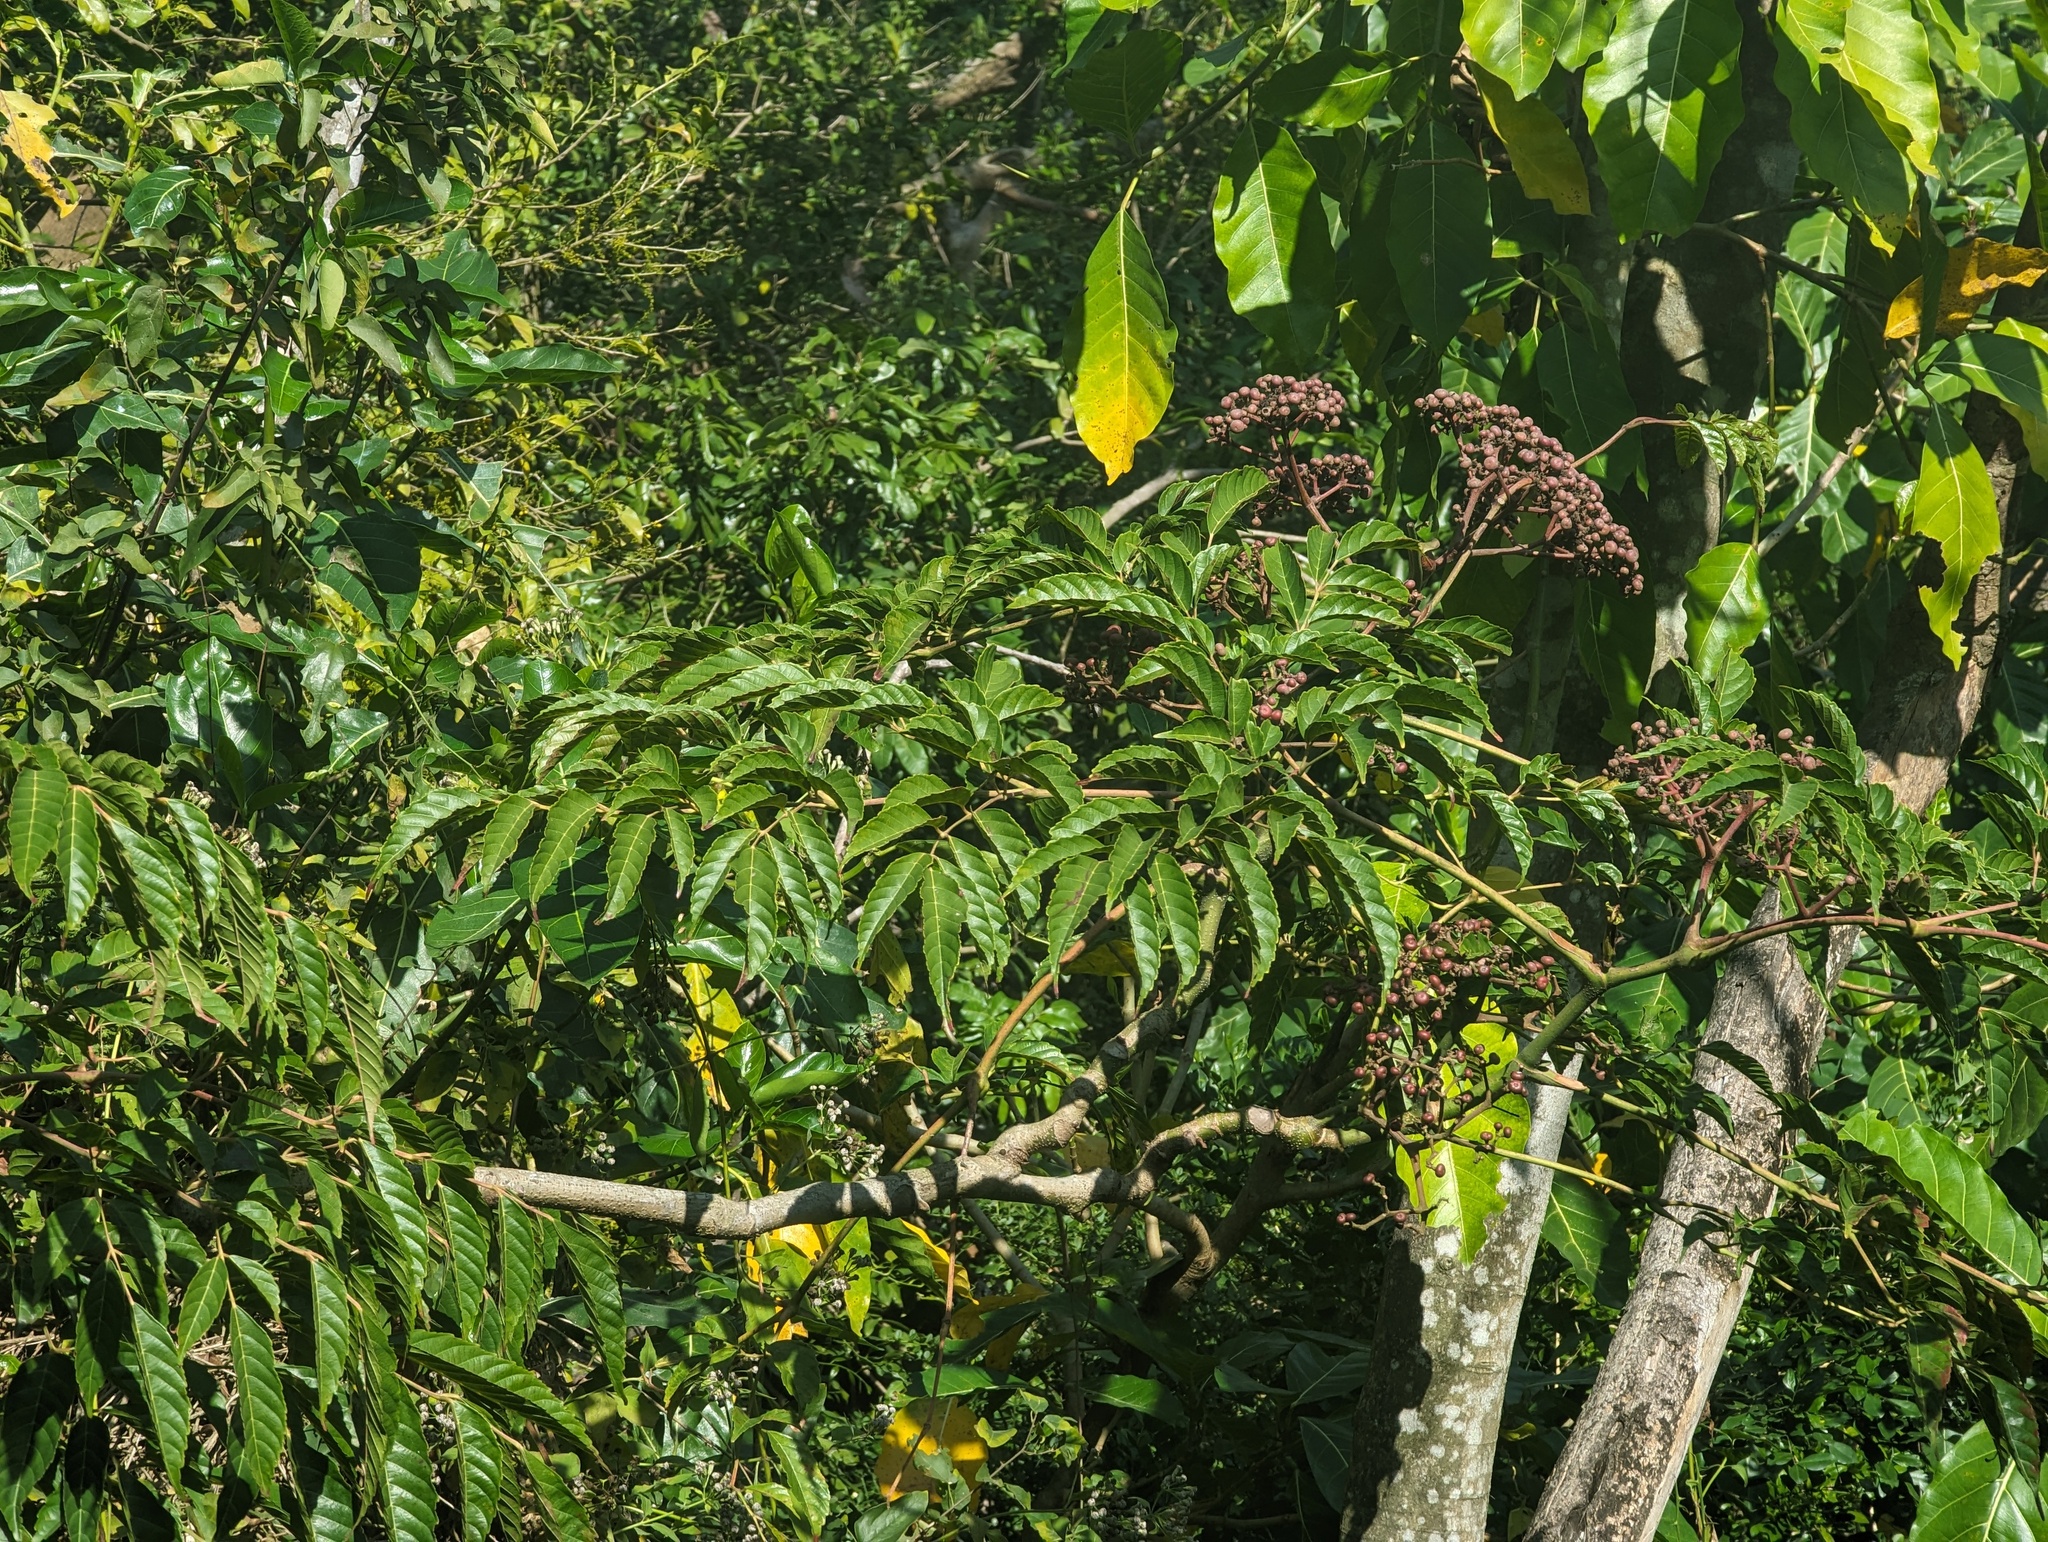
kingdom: Plantae
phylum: Tracheophyta
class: Magnoliopsida
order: Vitales
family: Vitaceae
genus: Leea
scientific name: Leea guineensis
